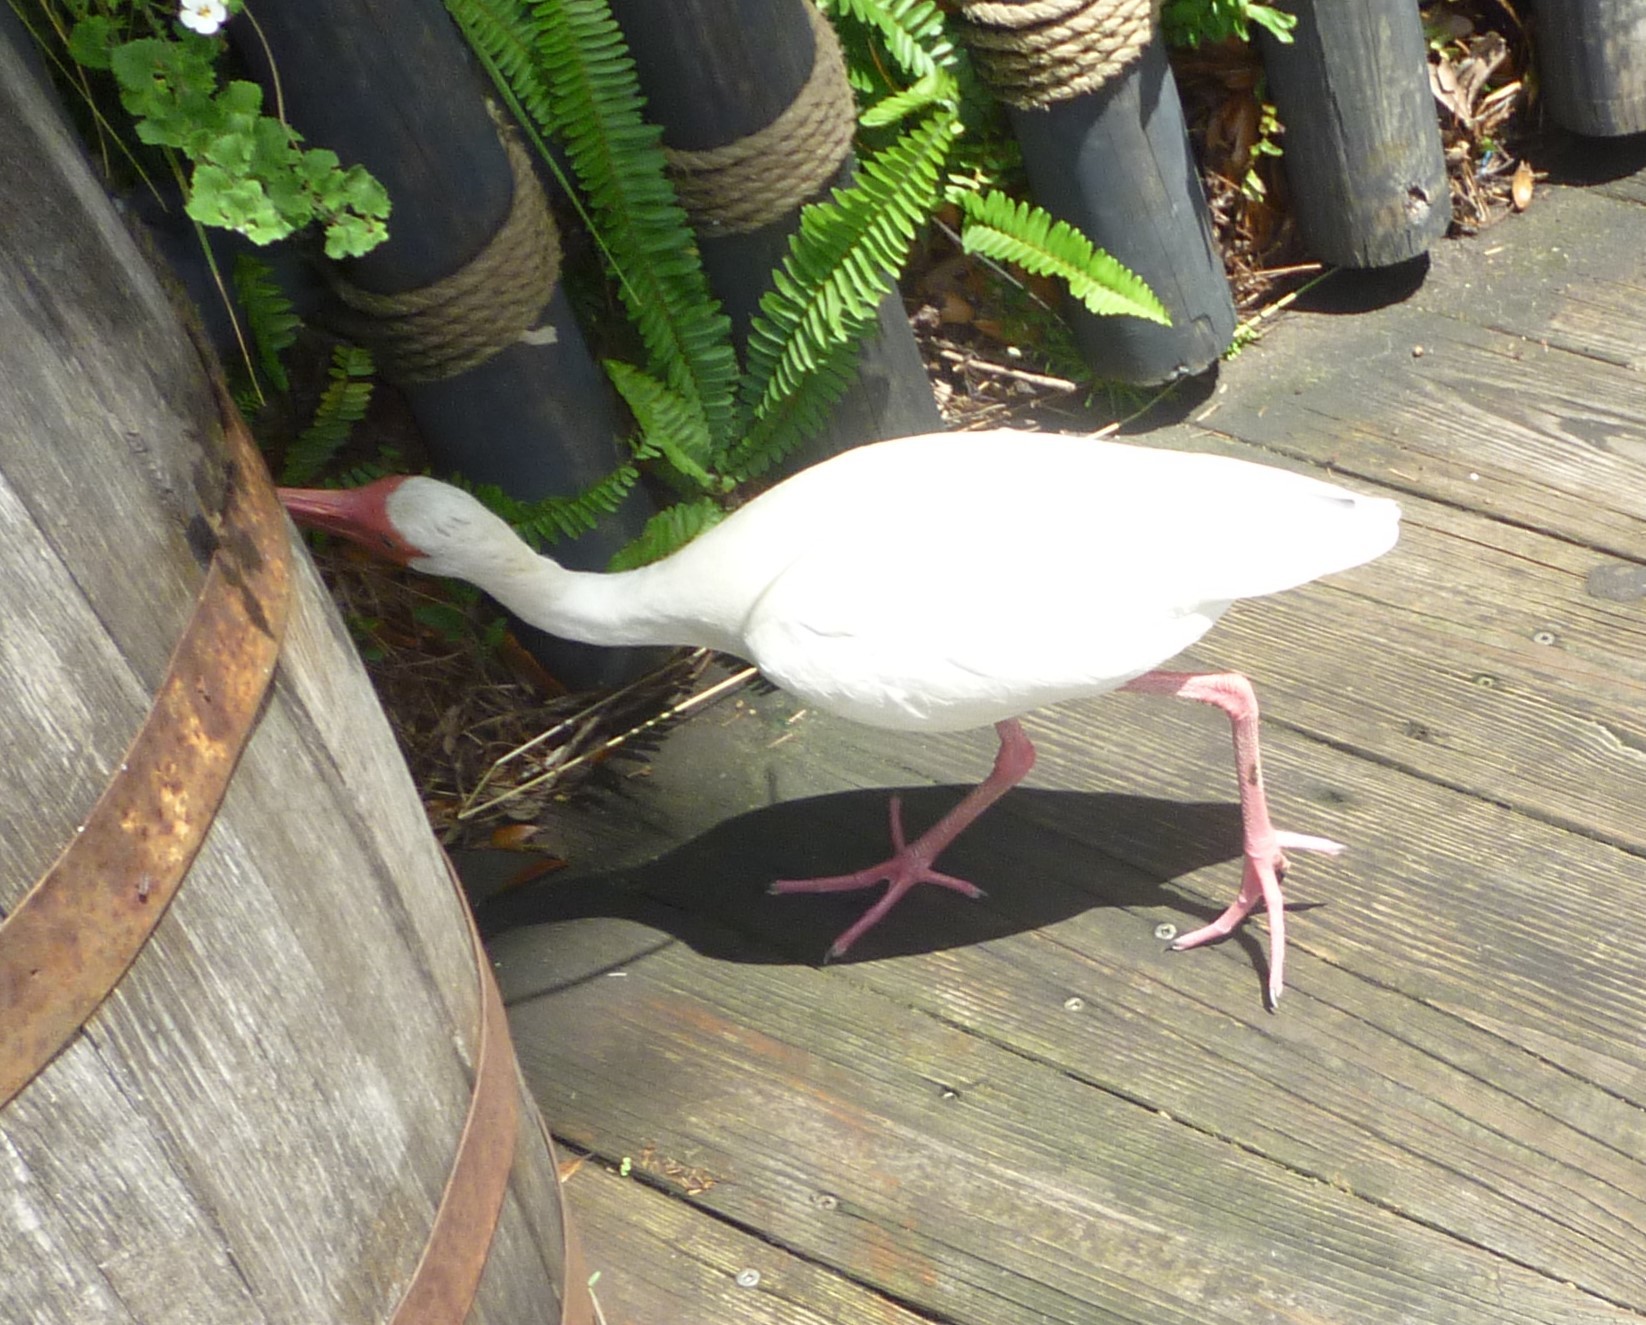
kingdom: Animalia
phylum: Chordata
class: Aves
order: Pelecaniformes
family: Threskiornithidae
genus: Eudocimus
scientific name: Eudocimus albus
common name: White ibis
